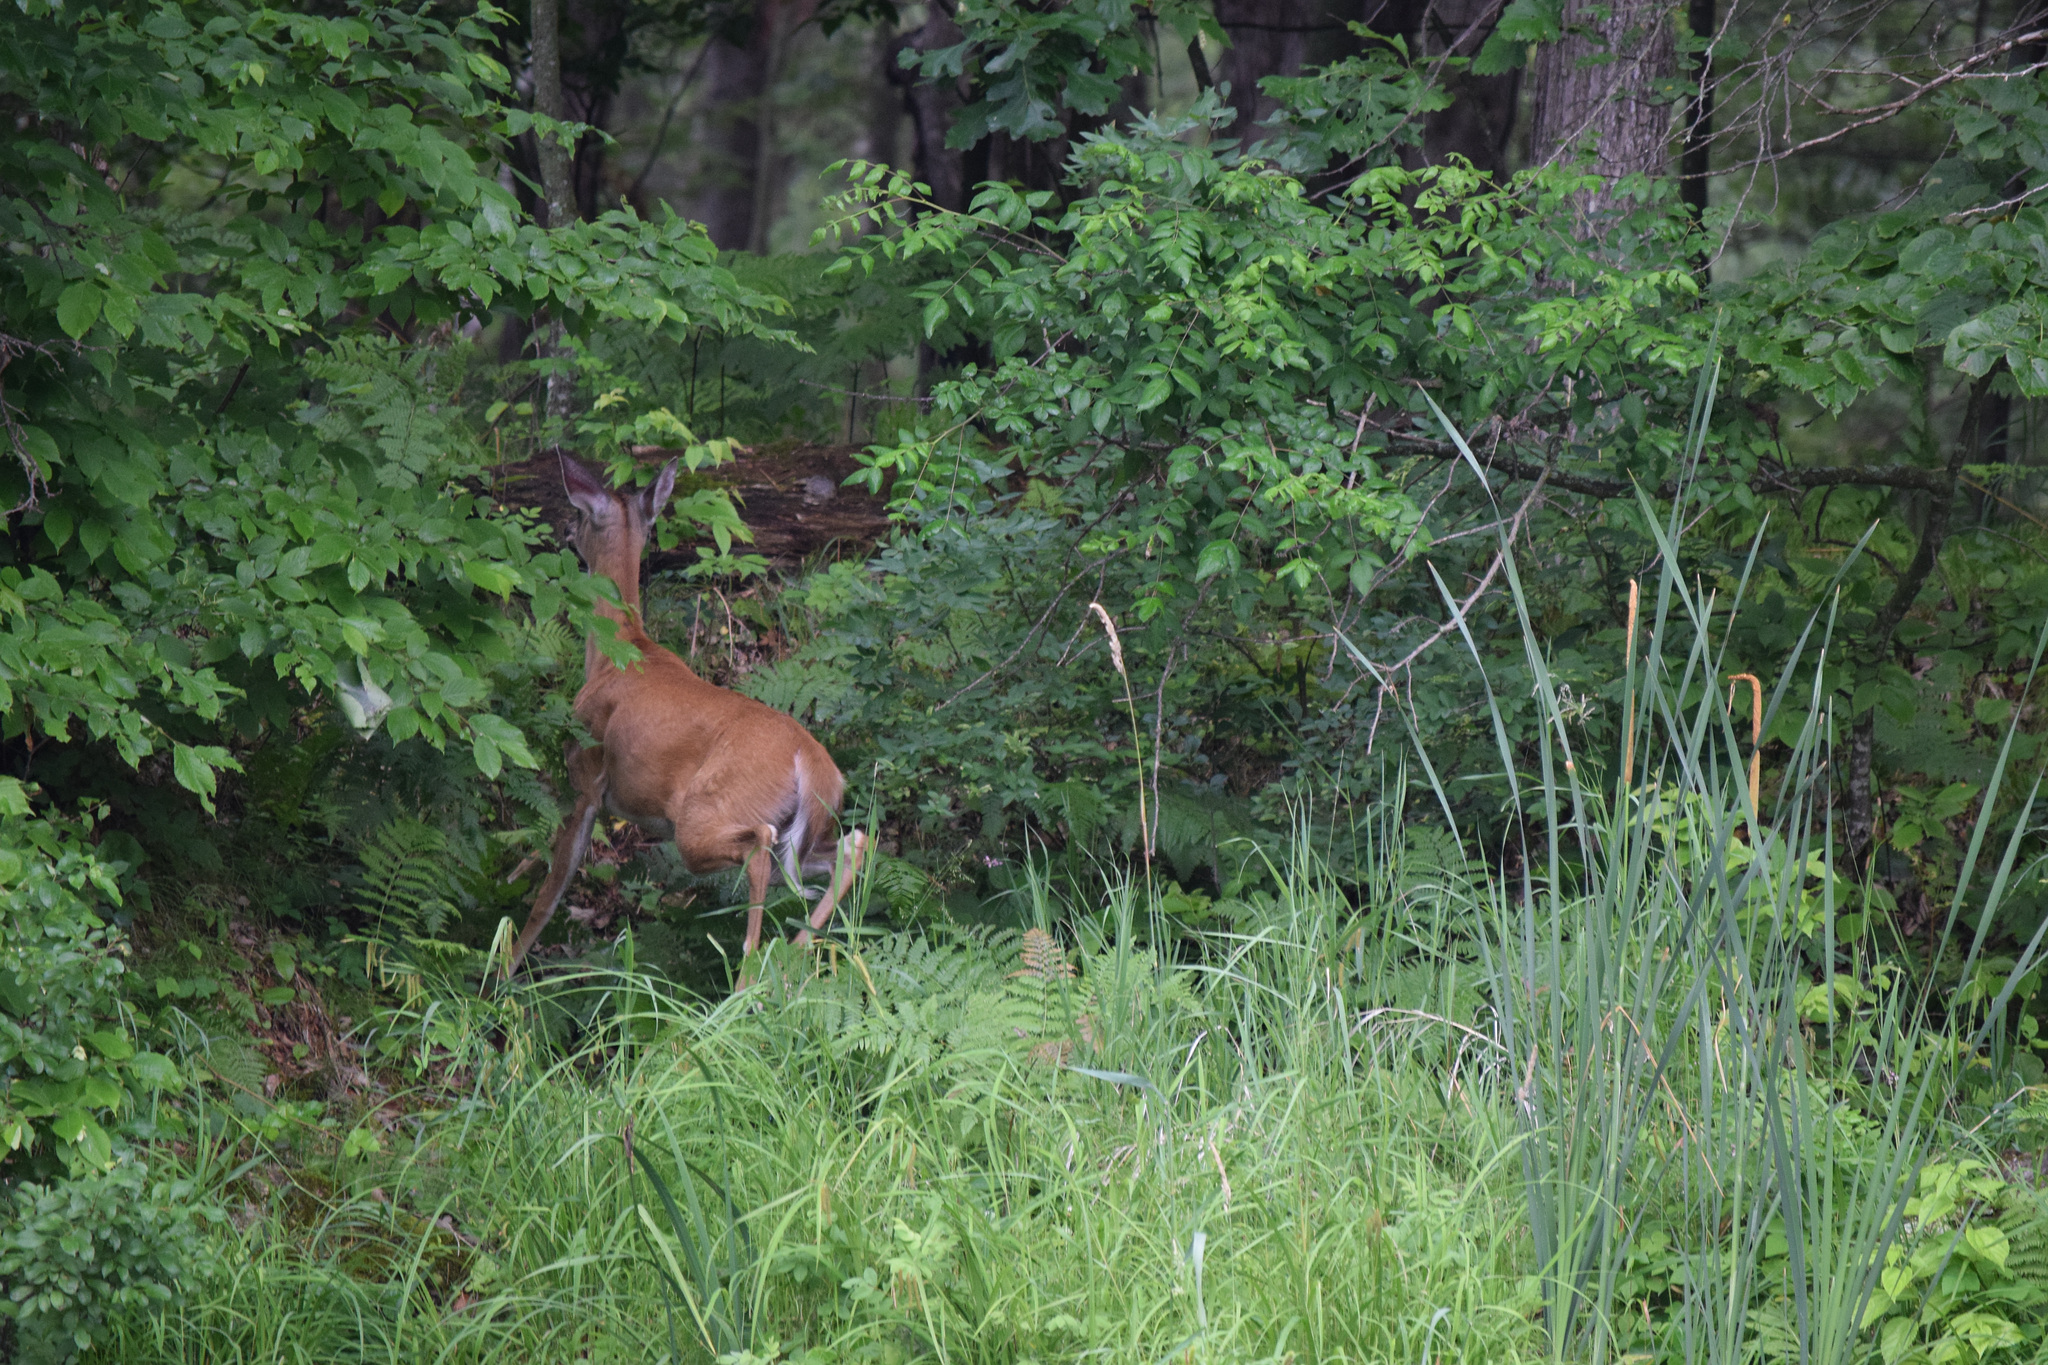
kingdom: Animalia
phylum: Chordata
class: Mammalia
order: Artiodactyla
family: Cervidae
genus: Odocoileus
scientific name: Odocoileus virginianus
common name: White-tailed deer
